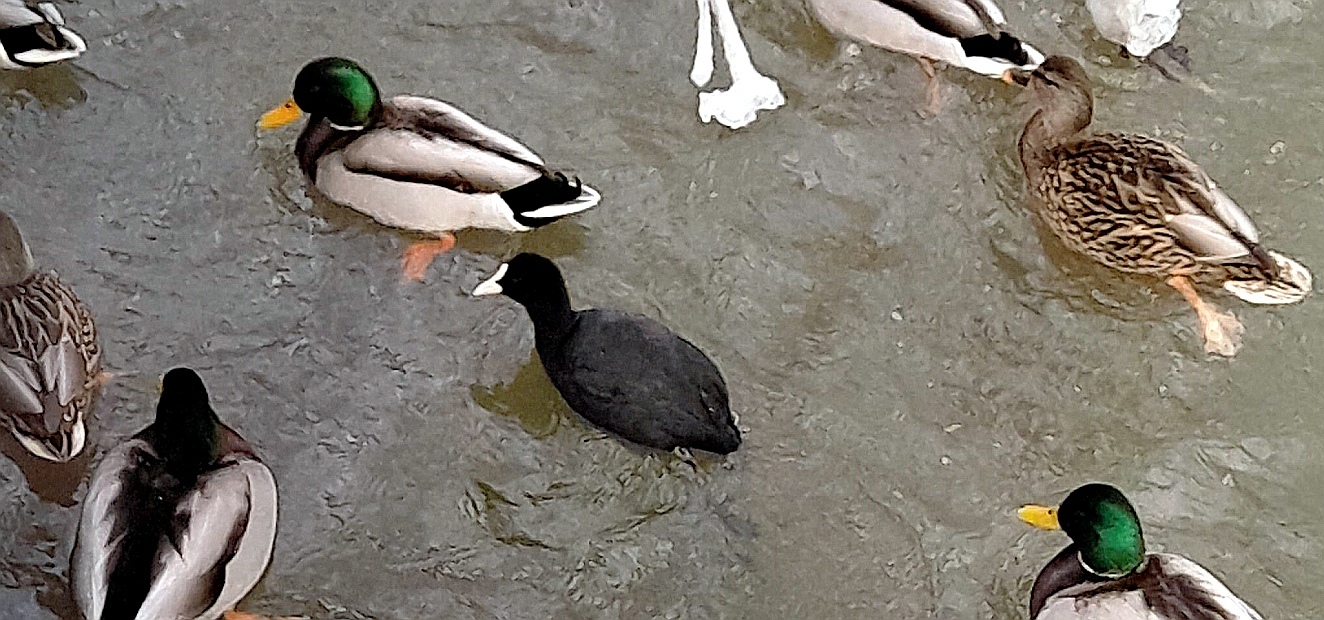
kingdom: Animalia
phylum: Chordata
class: Aves
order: Gruiformes
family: Rallidae
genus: Fulica
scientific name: Fulica atra
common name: Eurasian coot
